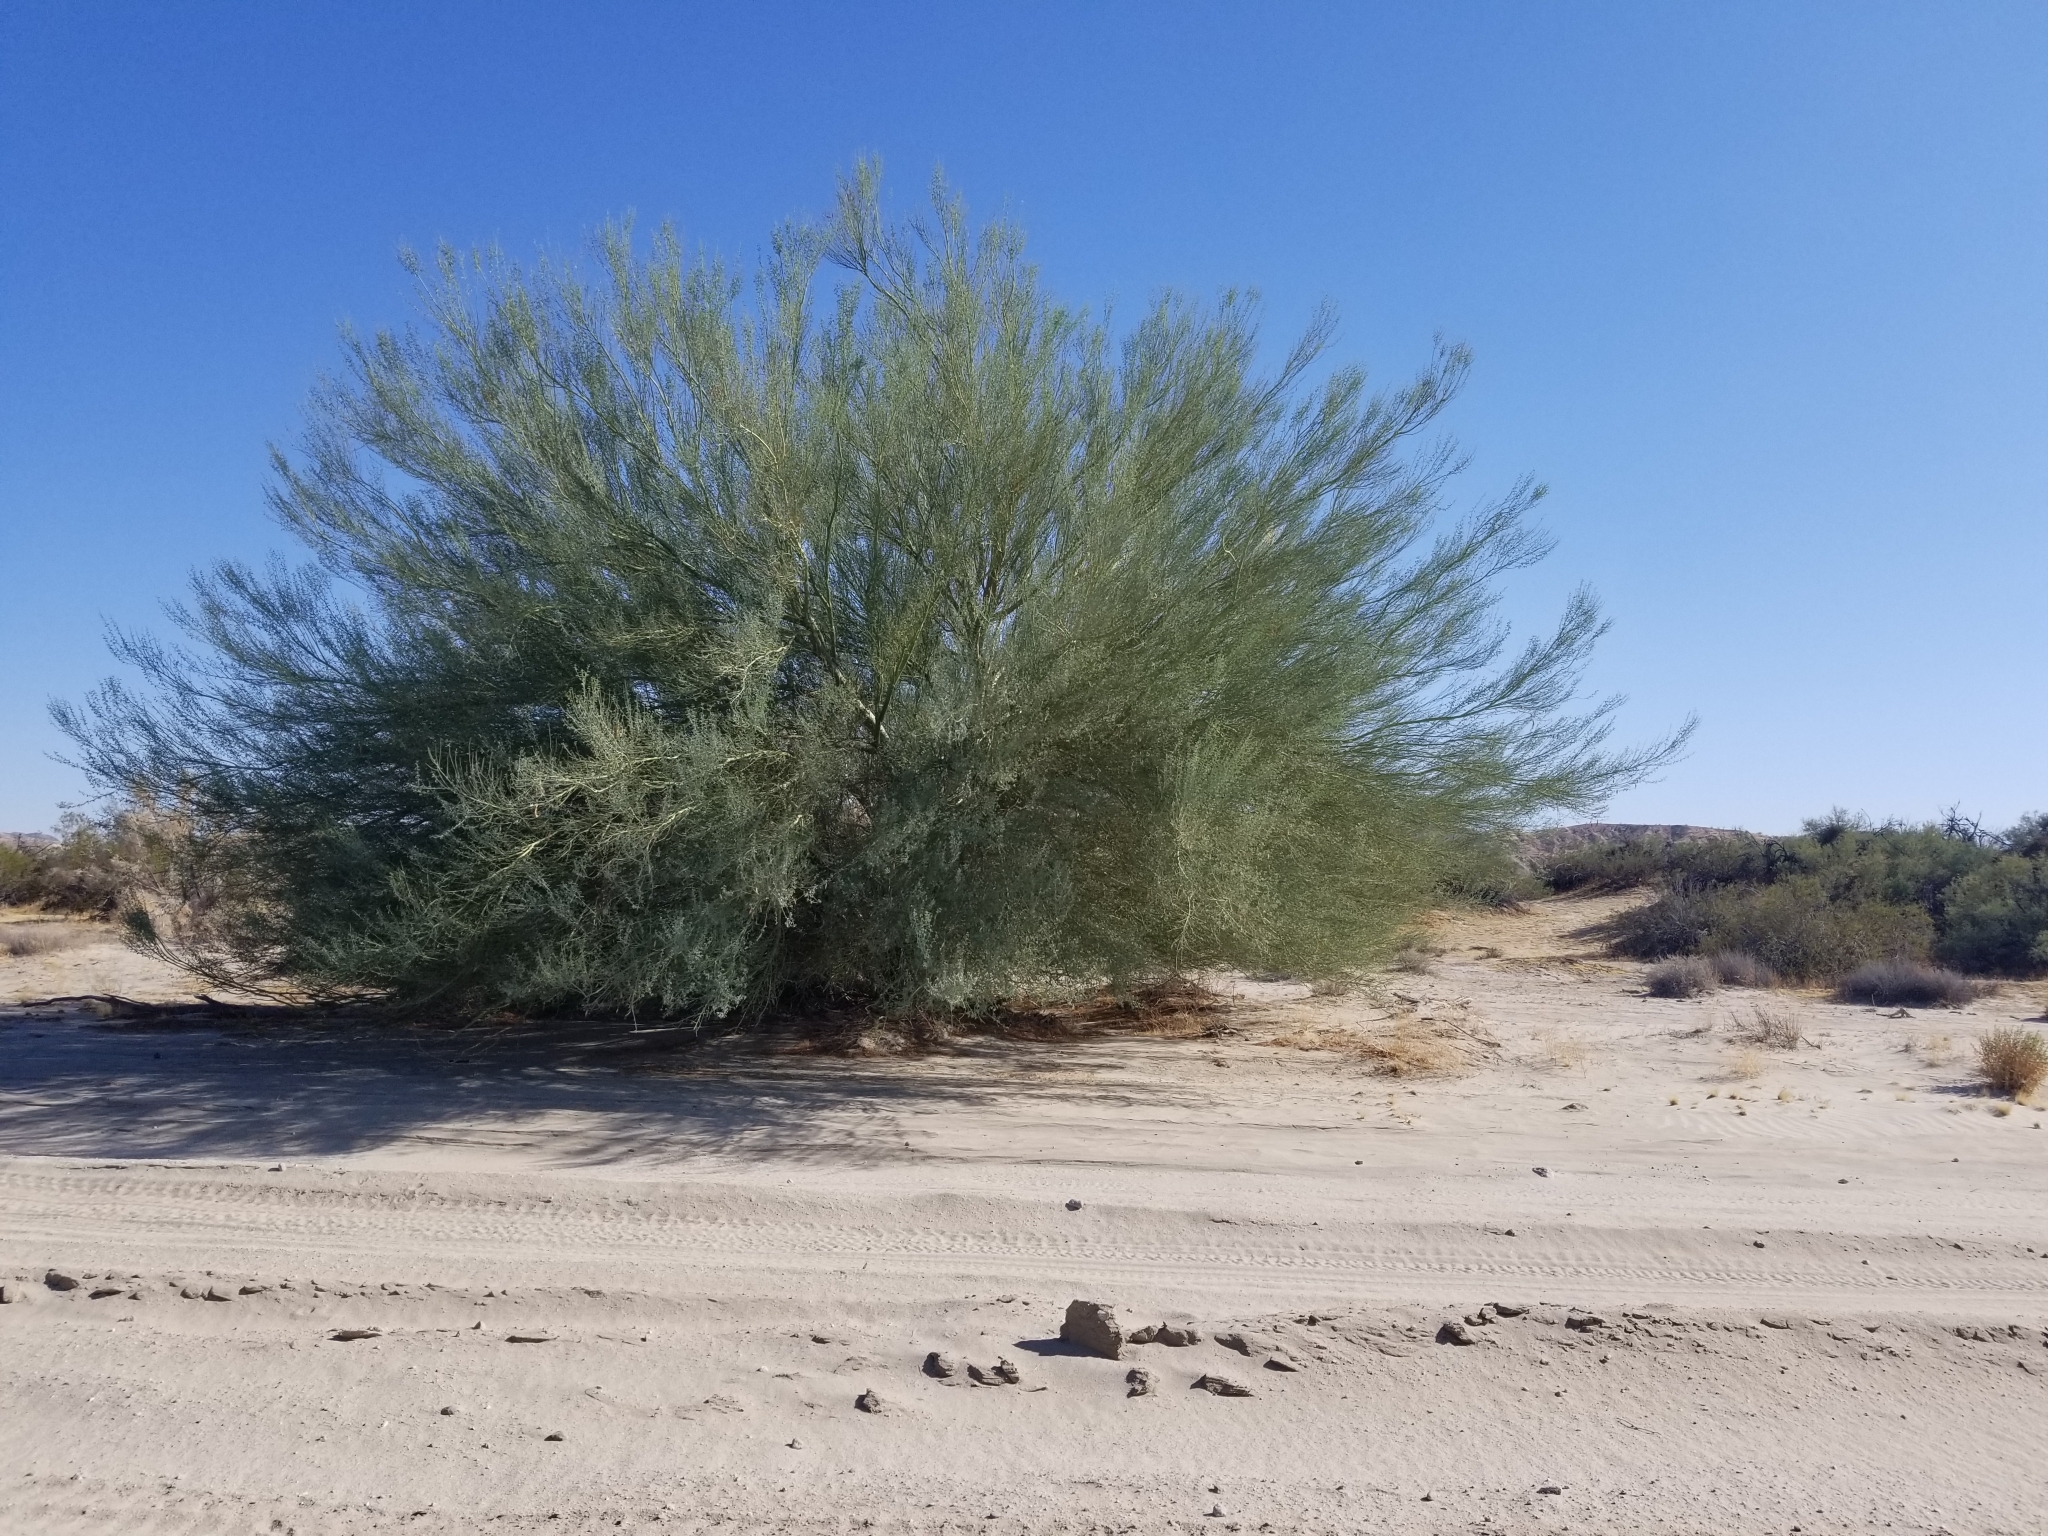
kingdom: Plantae
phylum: Tracheophyta
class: Magnoliopsida
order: Fabales
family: Fabaceae
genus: Parkinsonia
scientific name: Parkinsonia florida
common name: Blue paloverde
